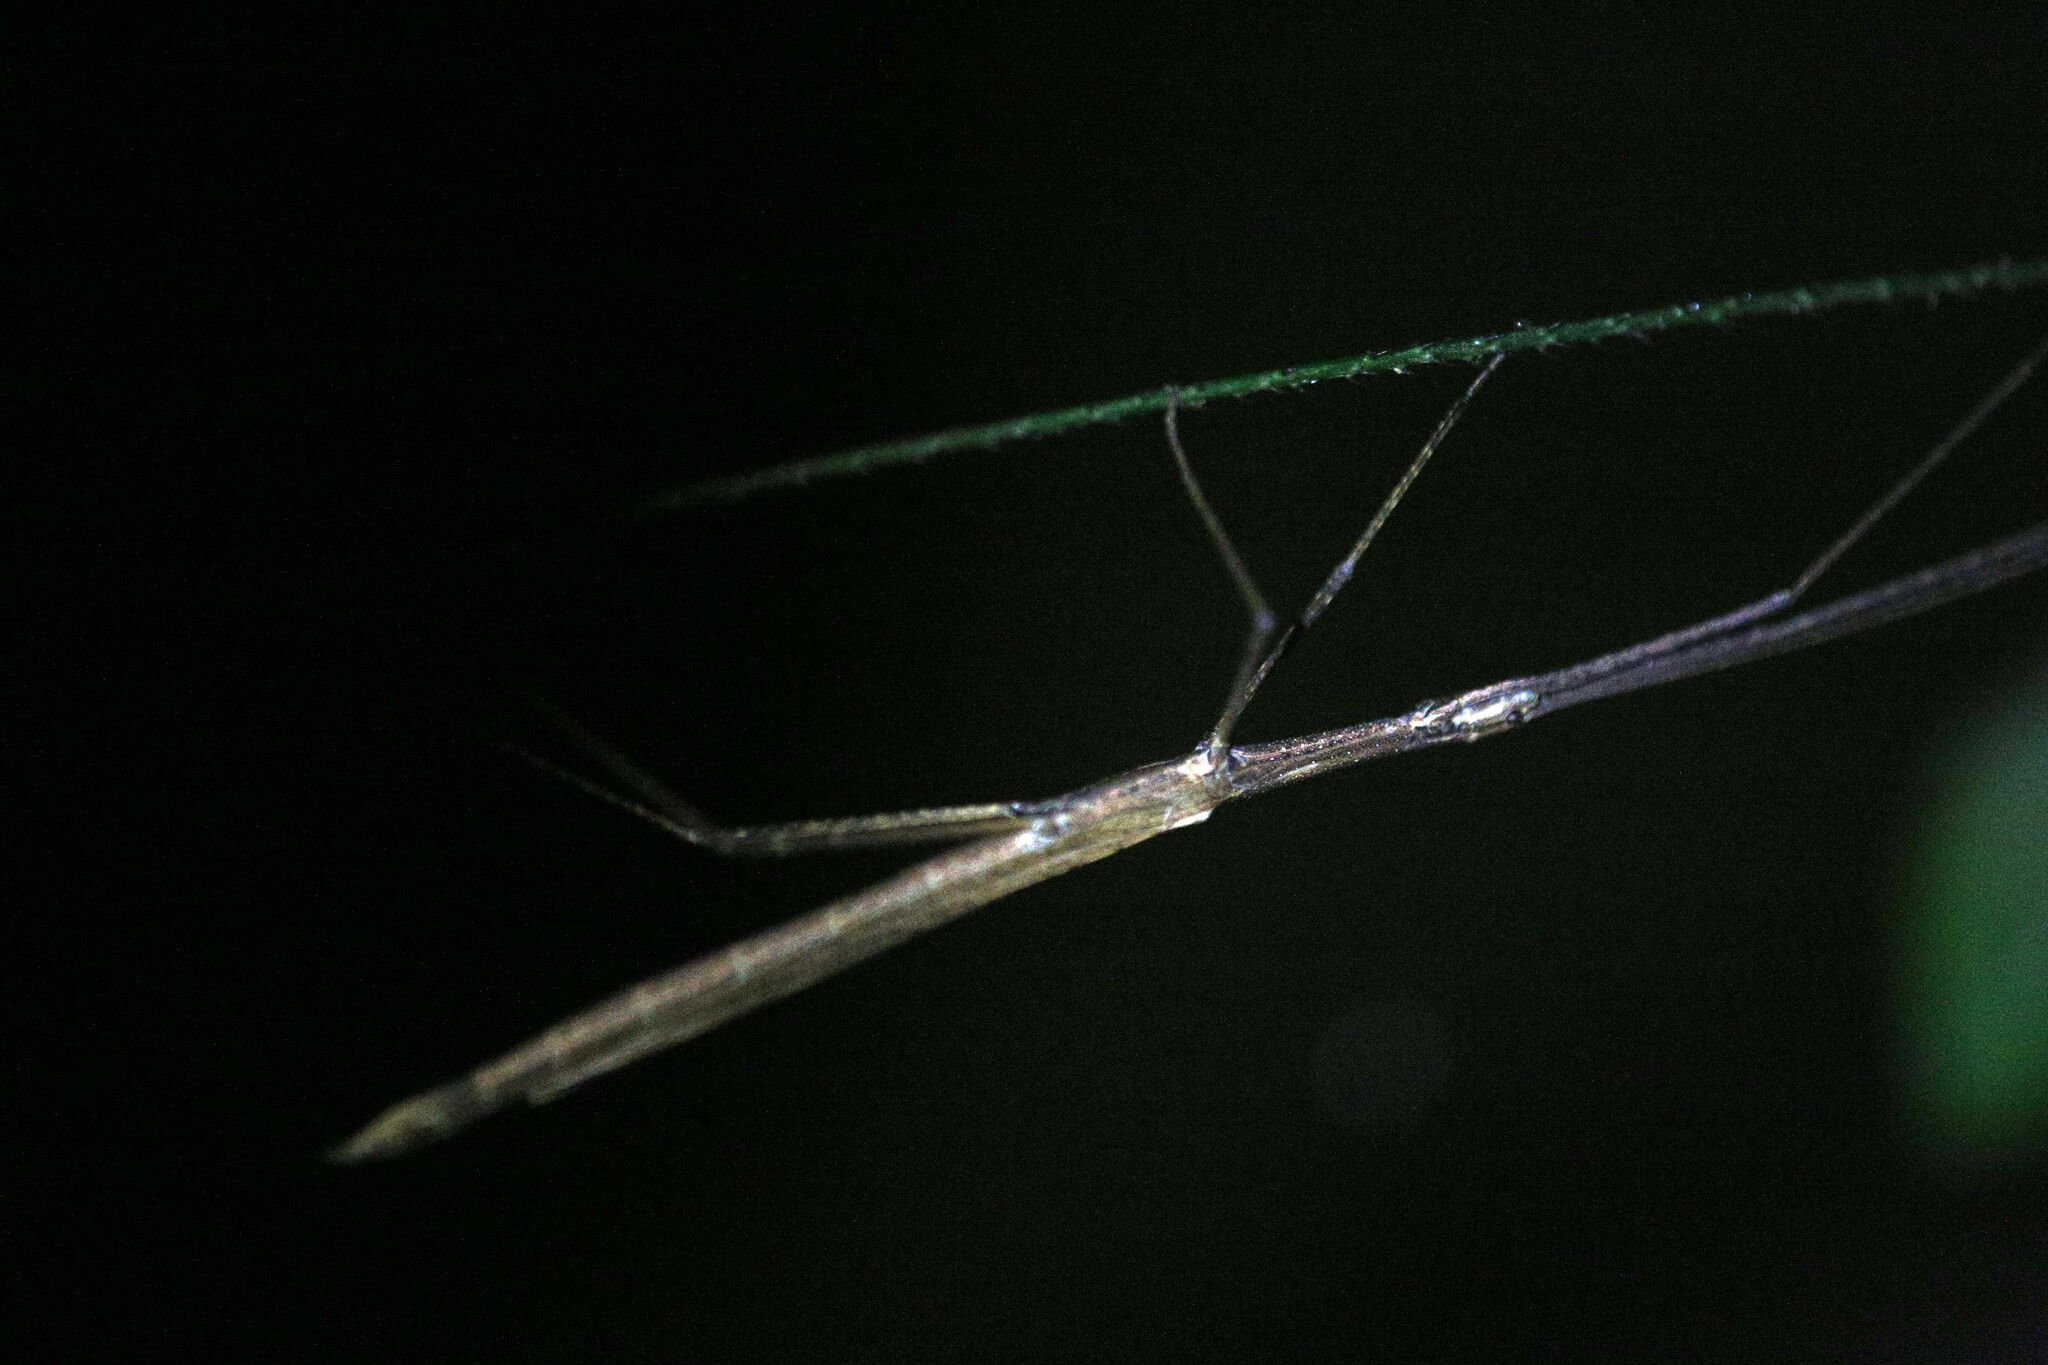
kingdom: Animalia
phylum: Arthropoda
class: Insecta
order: Phasmida
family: Lonchodidae
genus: Sipyloidea
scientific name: Sipyloidea larryi
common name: Hurricane larry stick-insect
